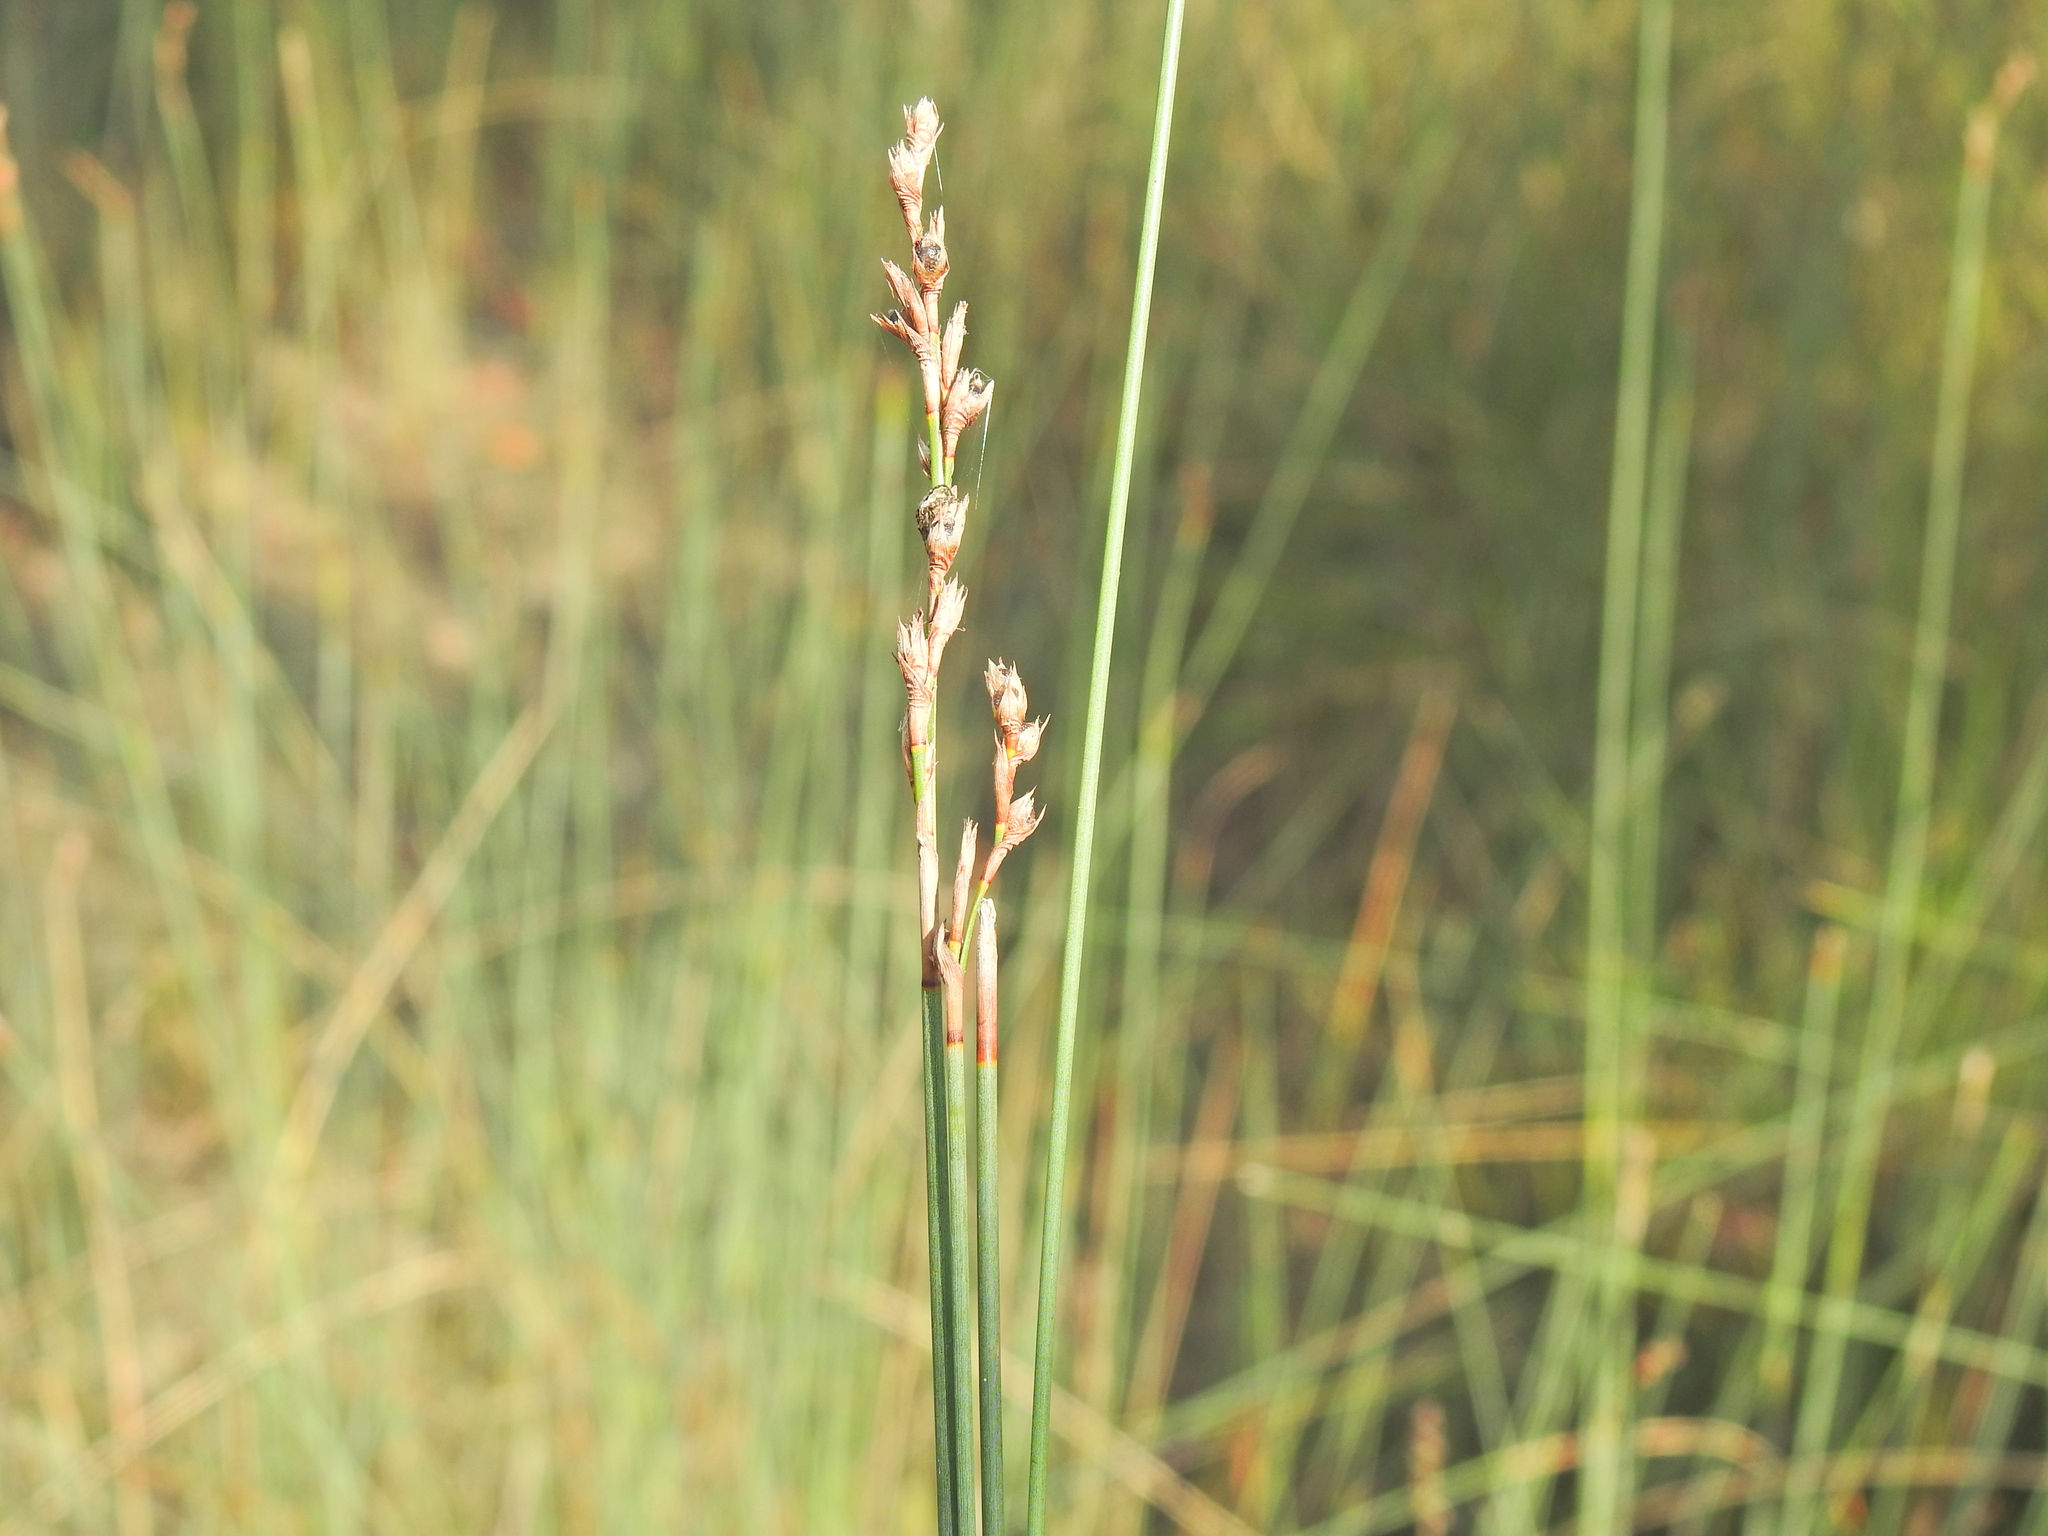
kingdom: Plantae
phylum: Tracheophyta
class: Liliopsida
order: Poales
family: Cyperaceae
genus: Machaerina
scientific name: Machaerina juncea
